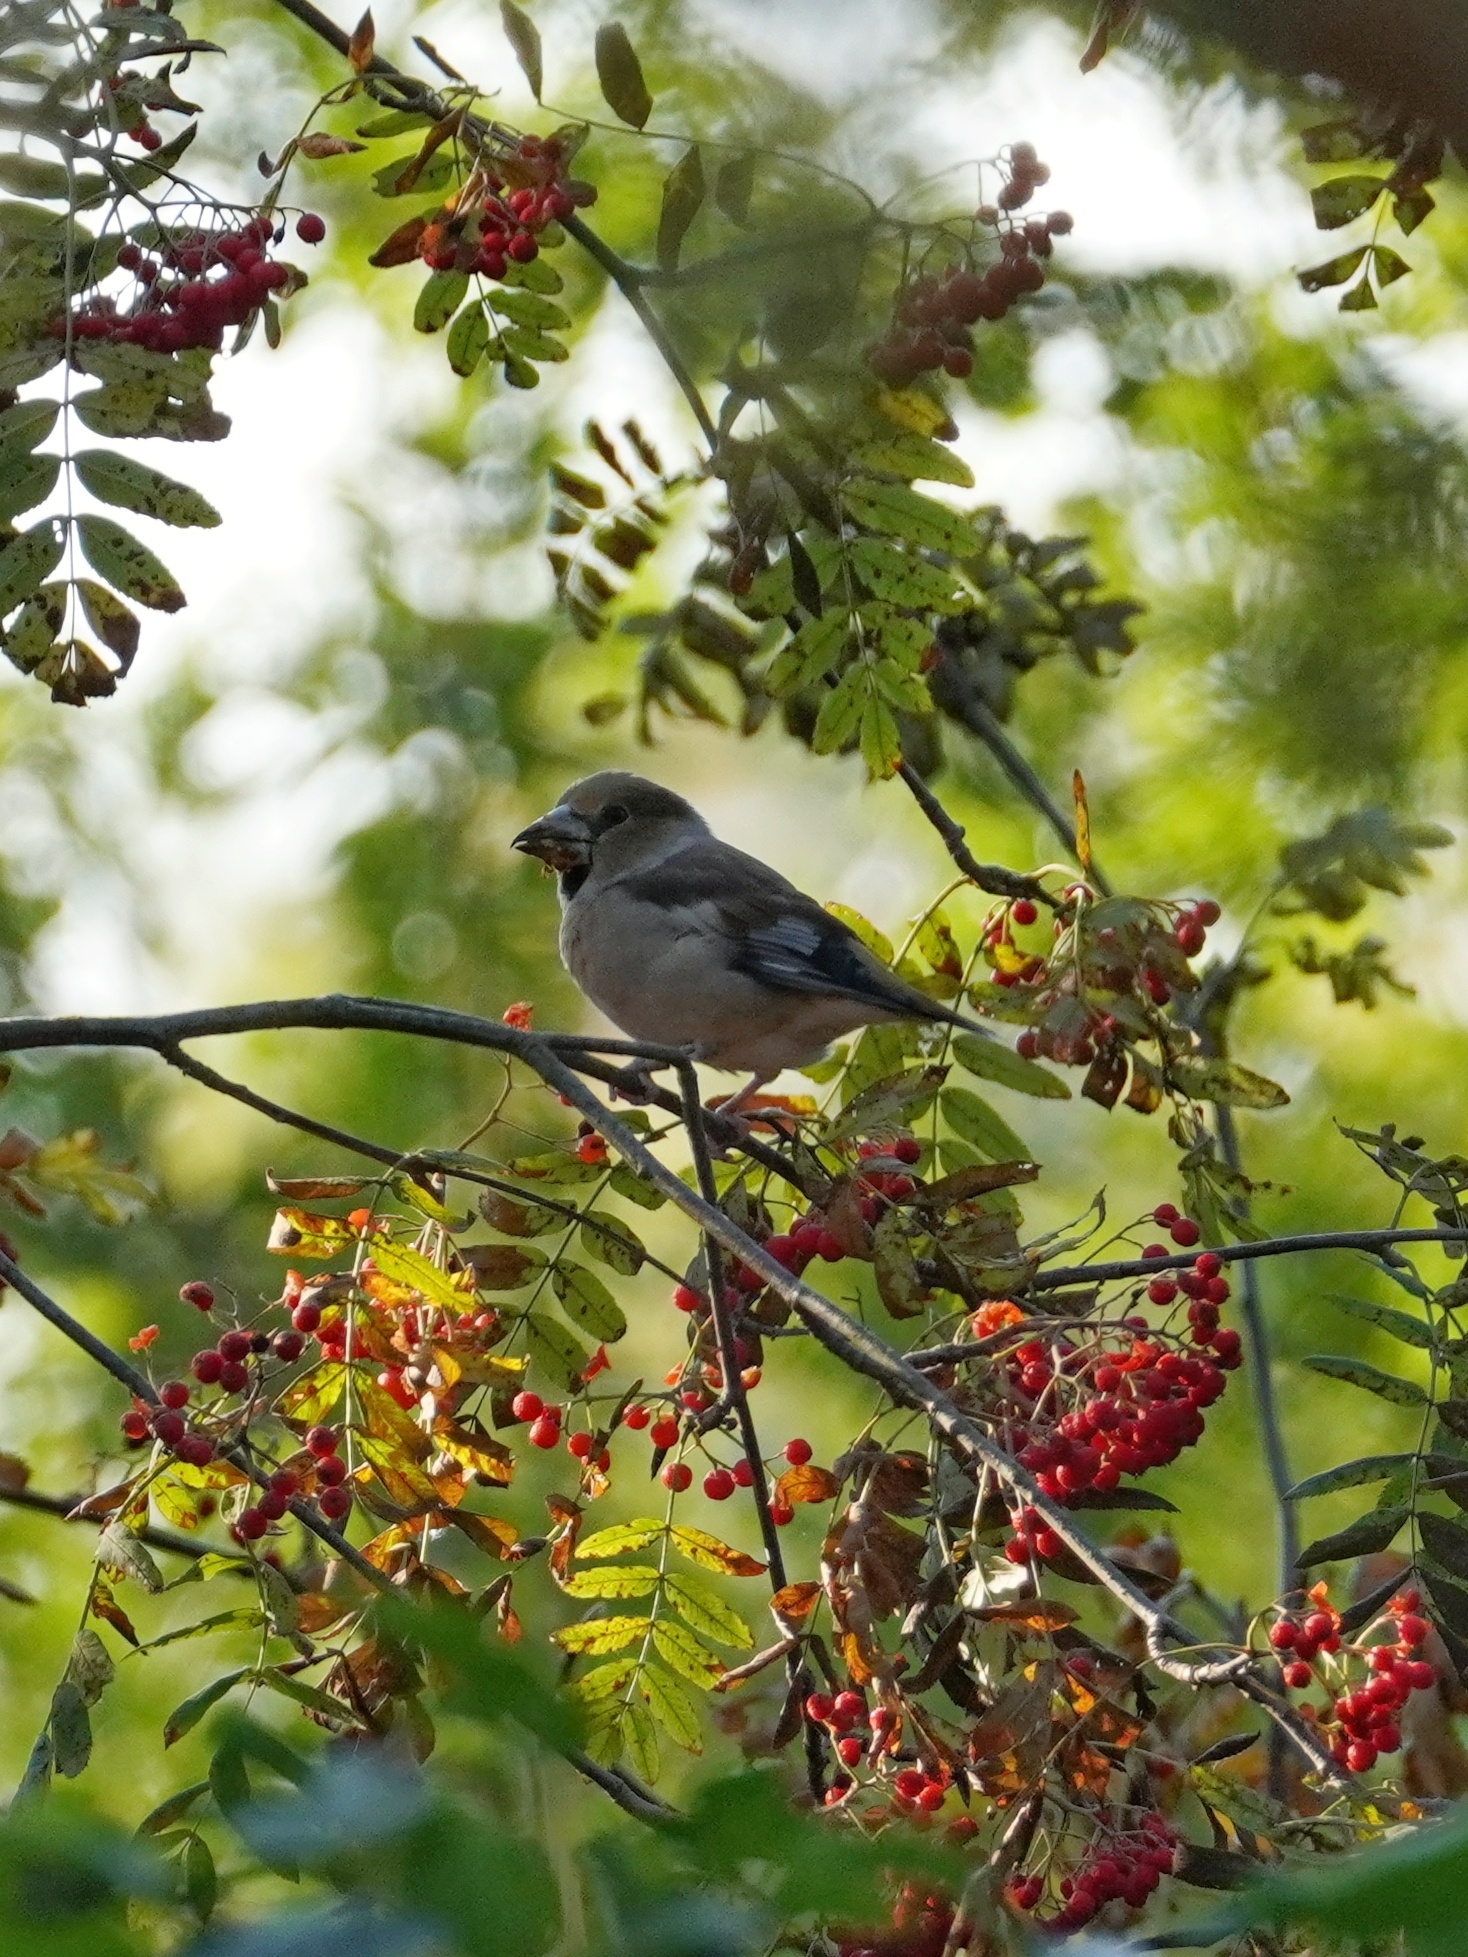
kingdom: Animalia
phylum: Chordata
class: Aves
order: Passeriformes
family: Fringillidae
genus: Coccothraustes
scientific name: Coccothraustes coccothraustes
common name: Hawfinch
